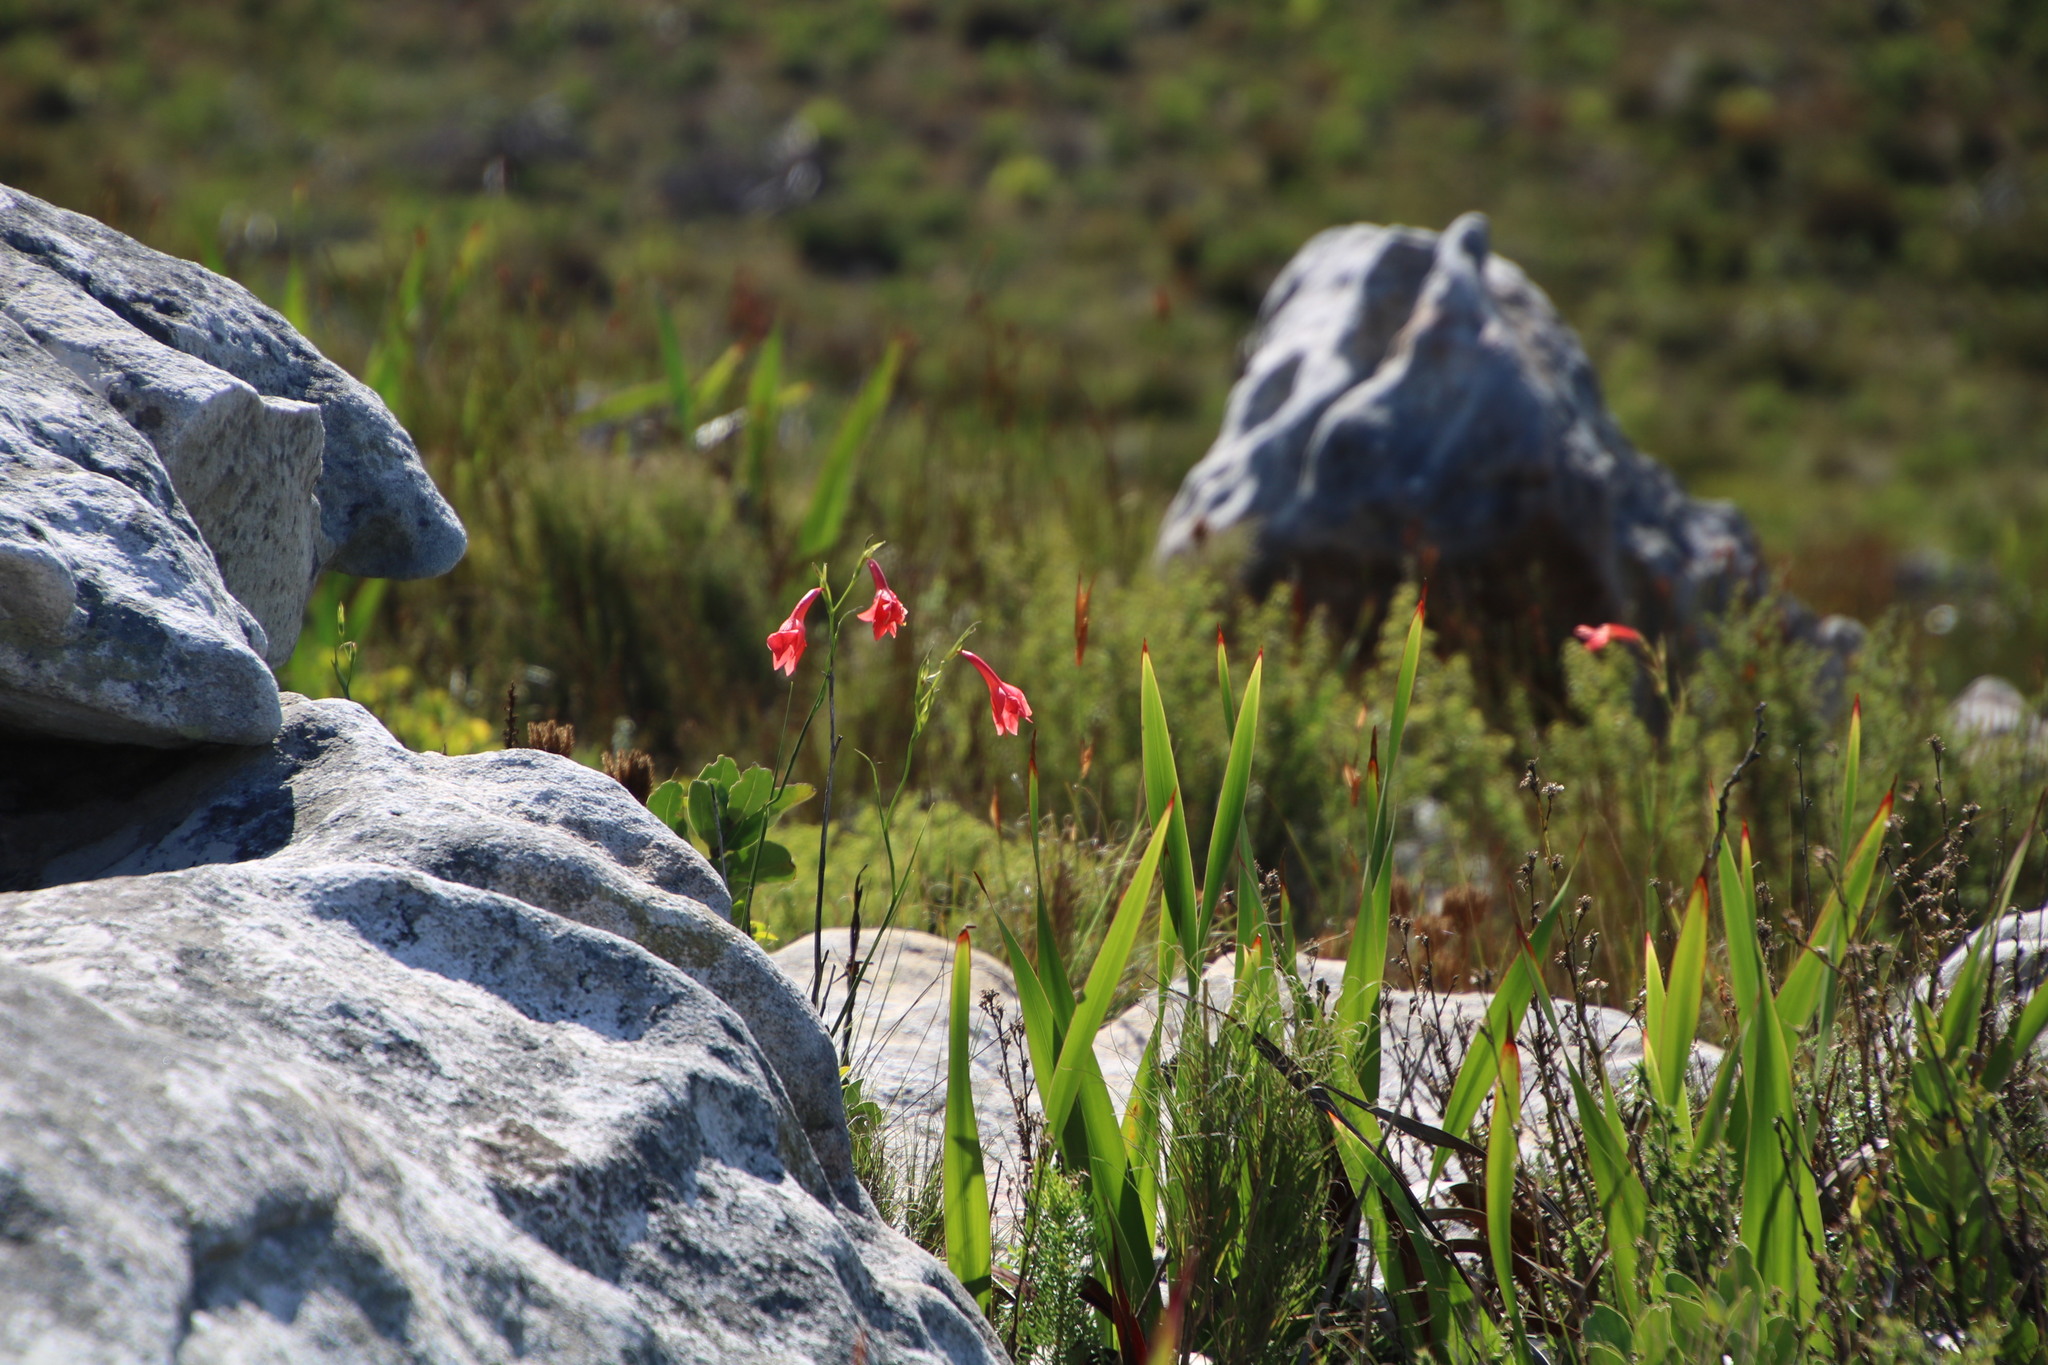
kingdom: Plantae
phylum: Tracheophyta
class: Liliopsida
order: Asparagales
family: Iridaceae
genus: Gladiolus
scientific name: Gladiolus priorii
